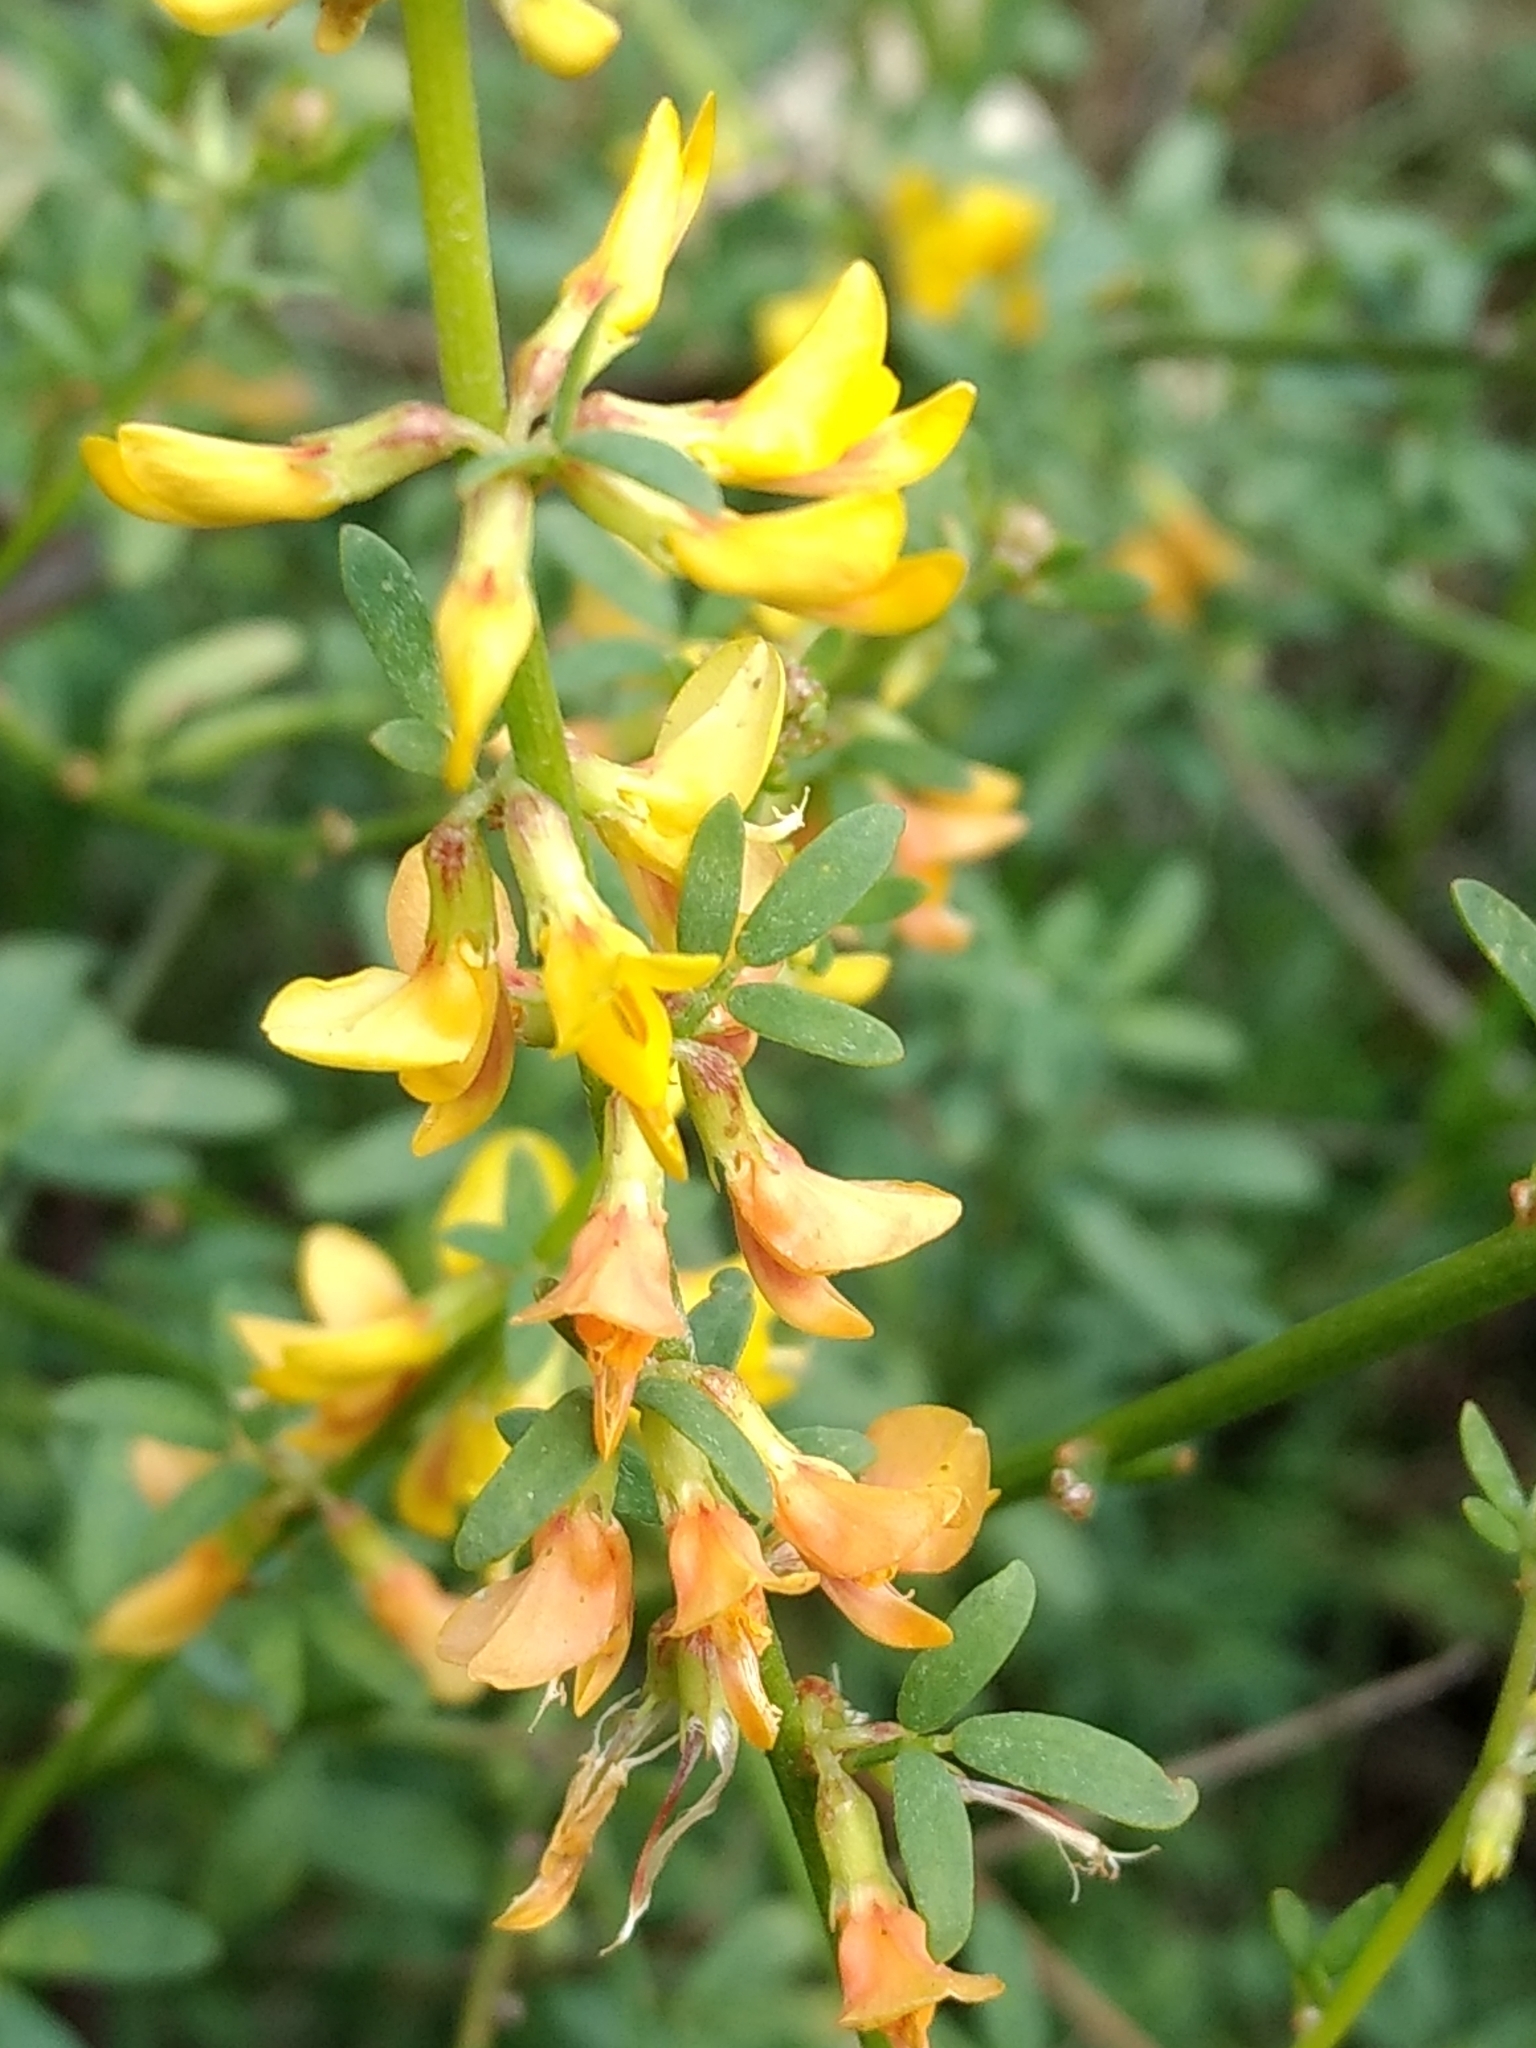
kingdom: Plantae
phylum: Tracheophyta
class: Magnoliopsida
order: Fabales
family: Fabaceae
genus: Acmispon
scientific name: Acmispon glaber
